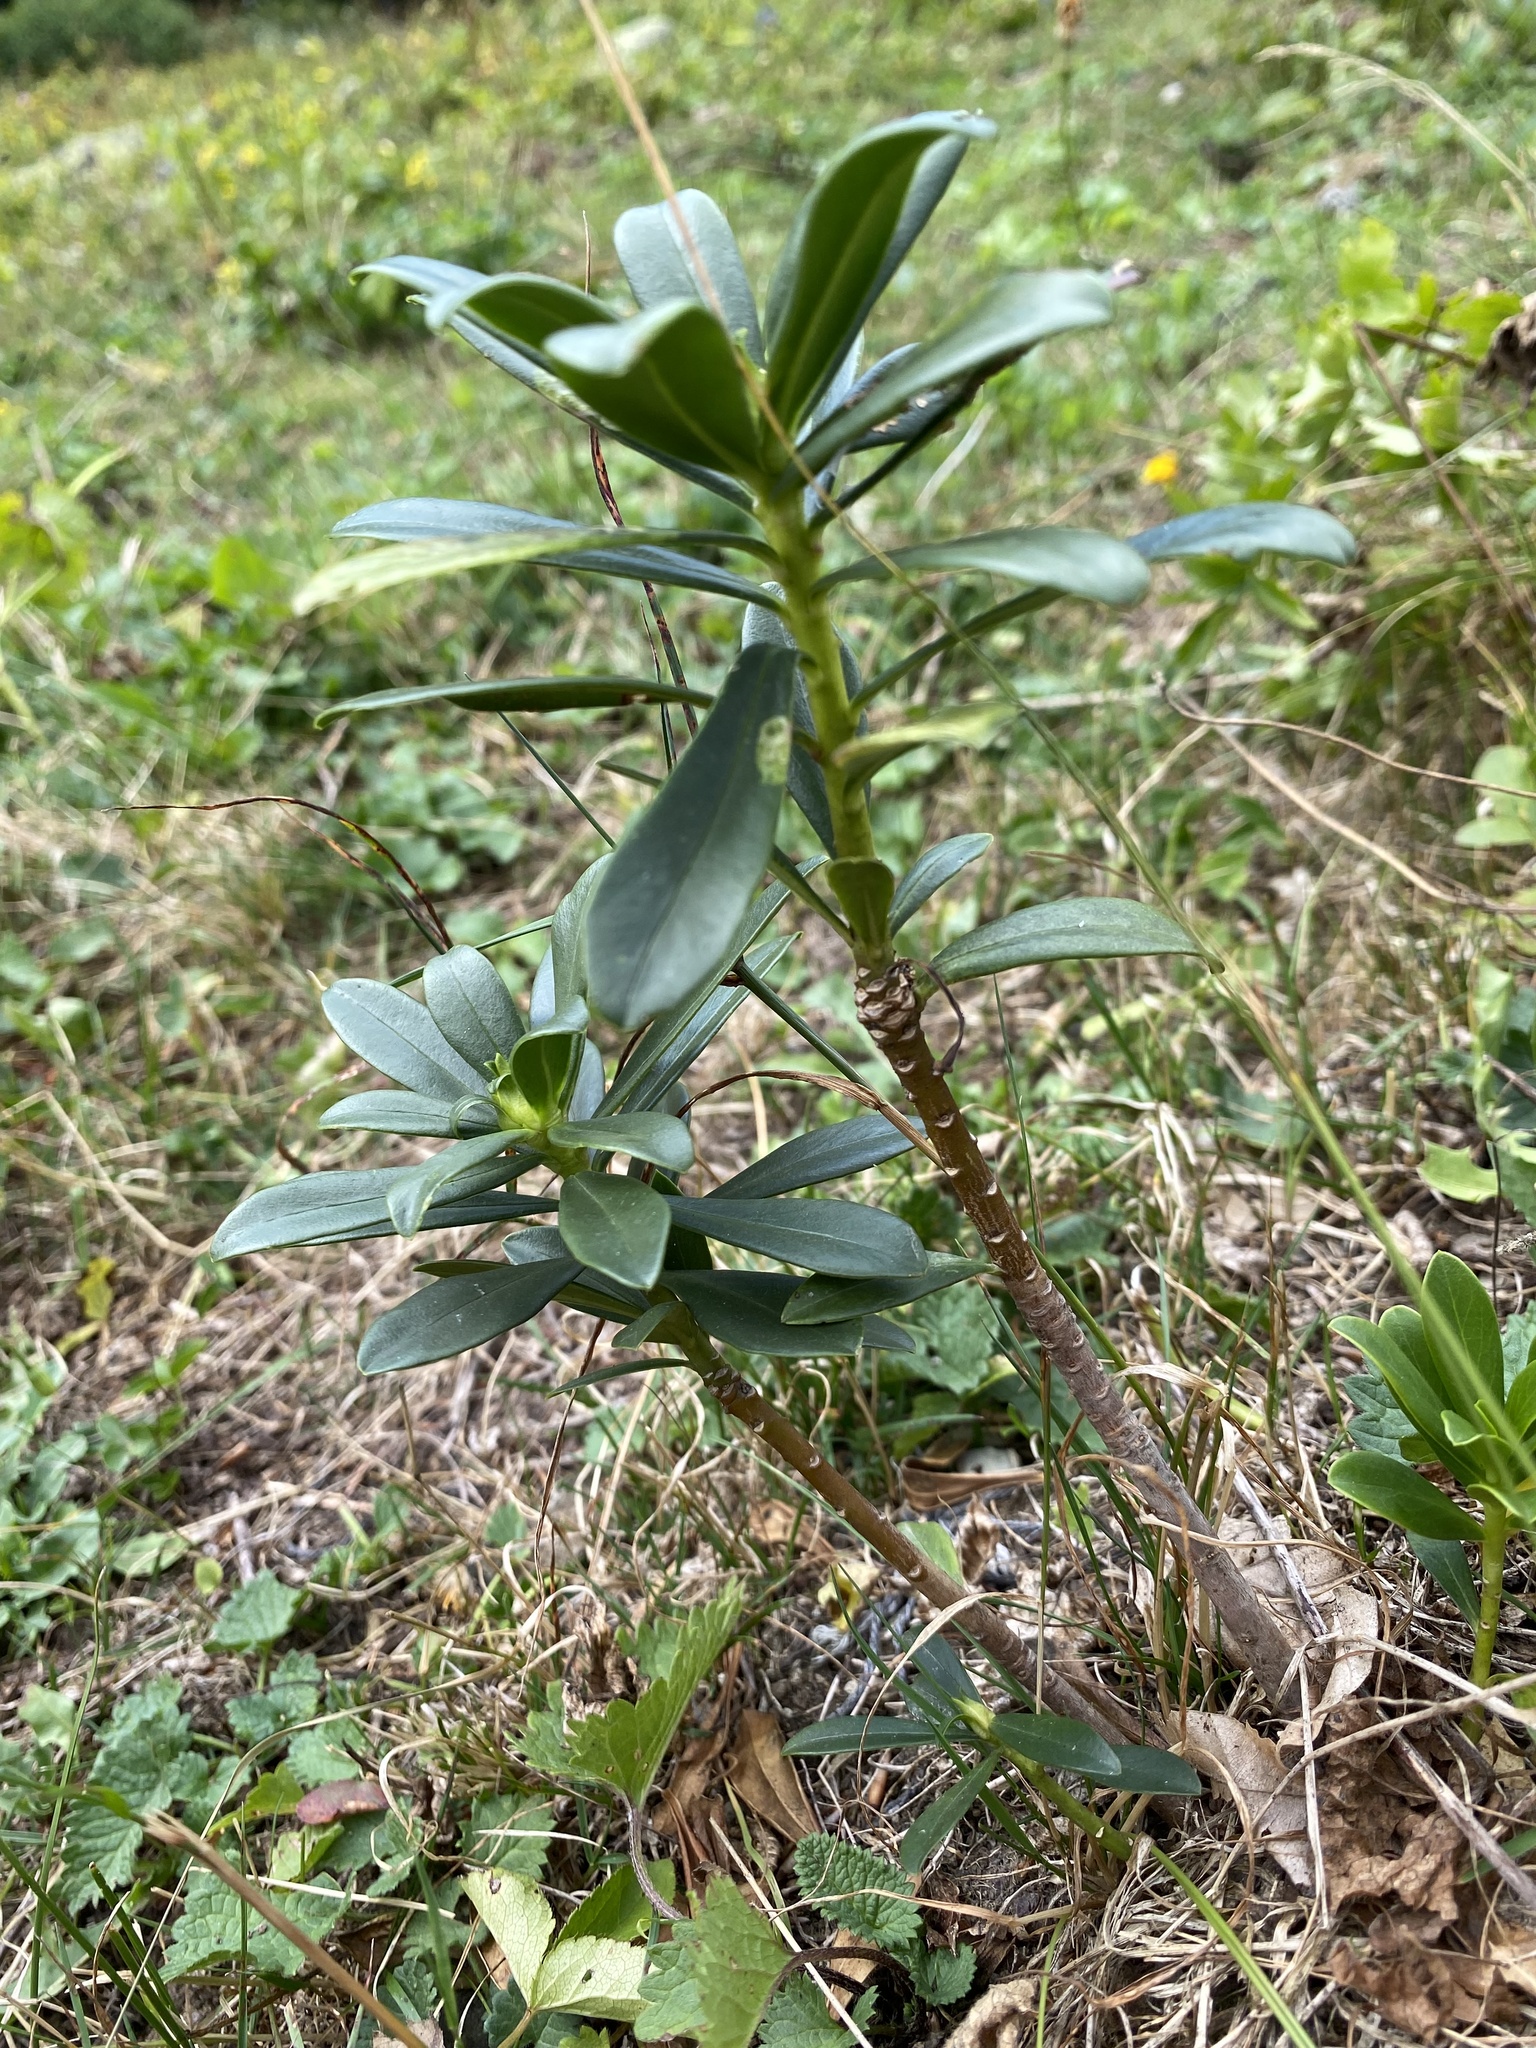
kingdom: Plantae
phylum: Tracheophyta
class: Magnoliopsida
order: Malvales
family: Thymelaeaceae
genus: Daphne
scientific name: Daphne glomerata
